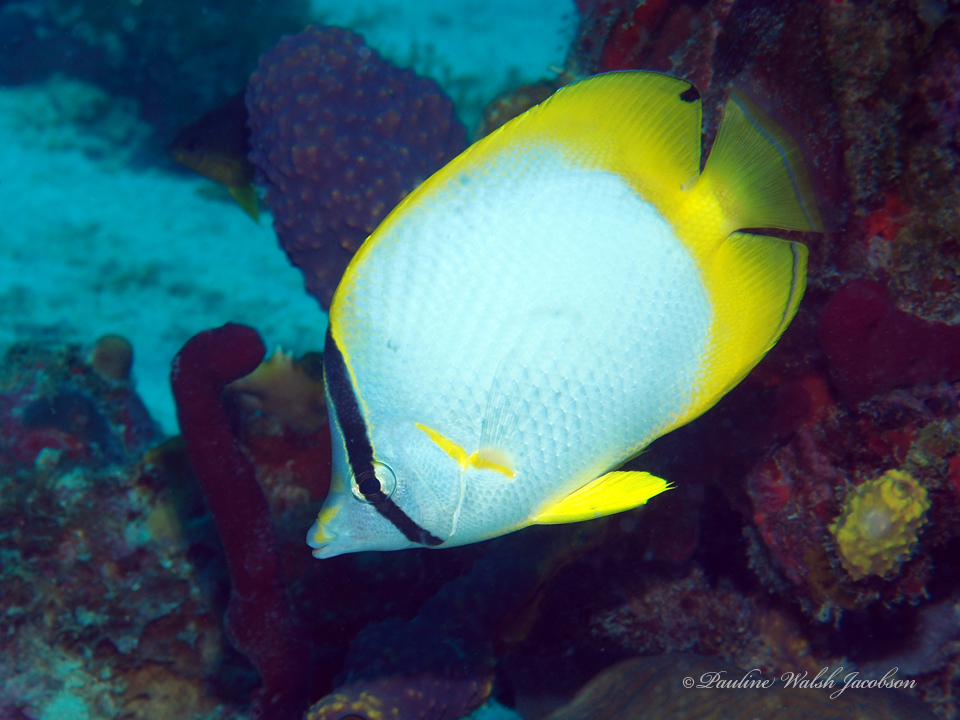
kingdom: Animalia
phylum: Chordata
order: Perciformes
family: Chaetodontidae
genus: Chaetodon
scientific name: Chaetodon ocellatus
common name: Spotfin butterflyfish
